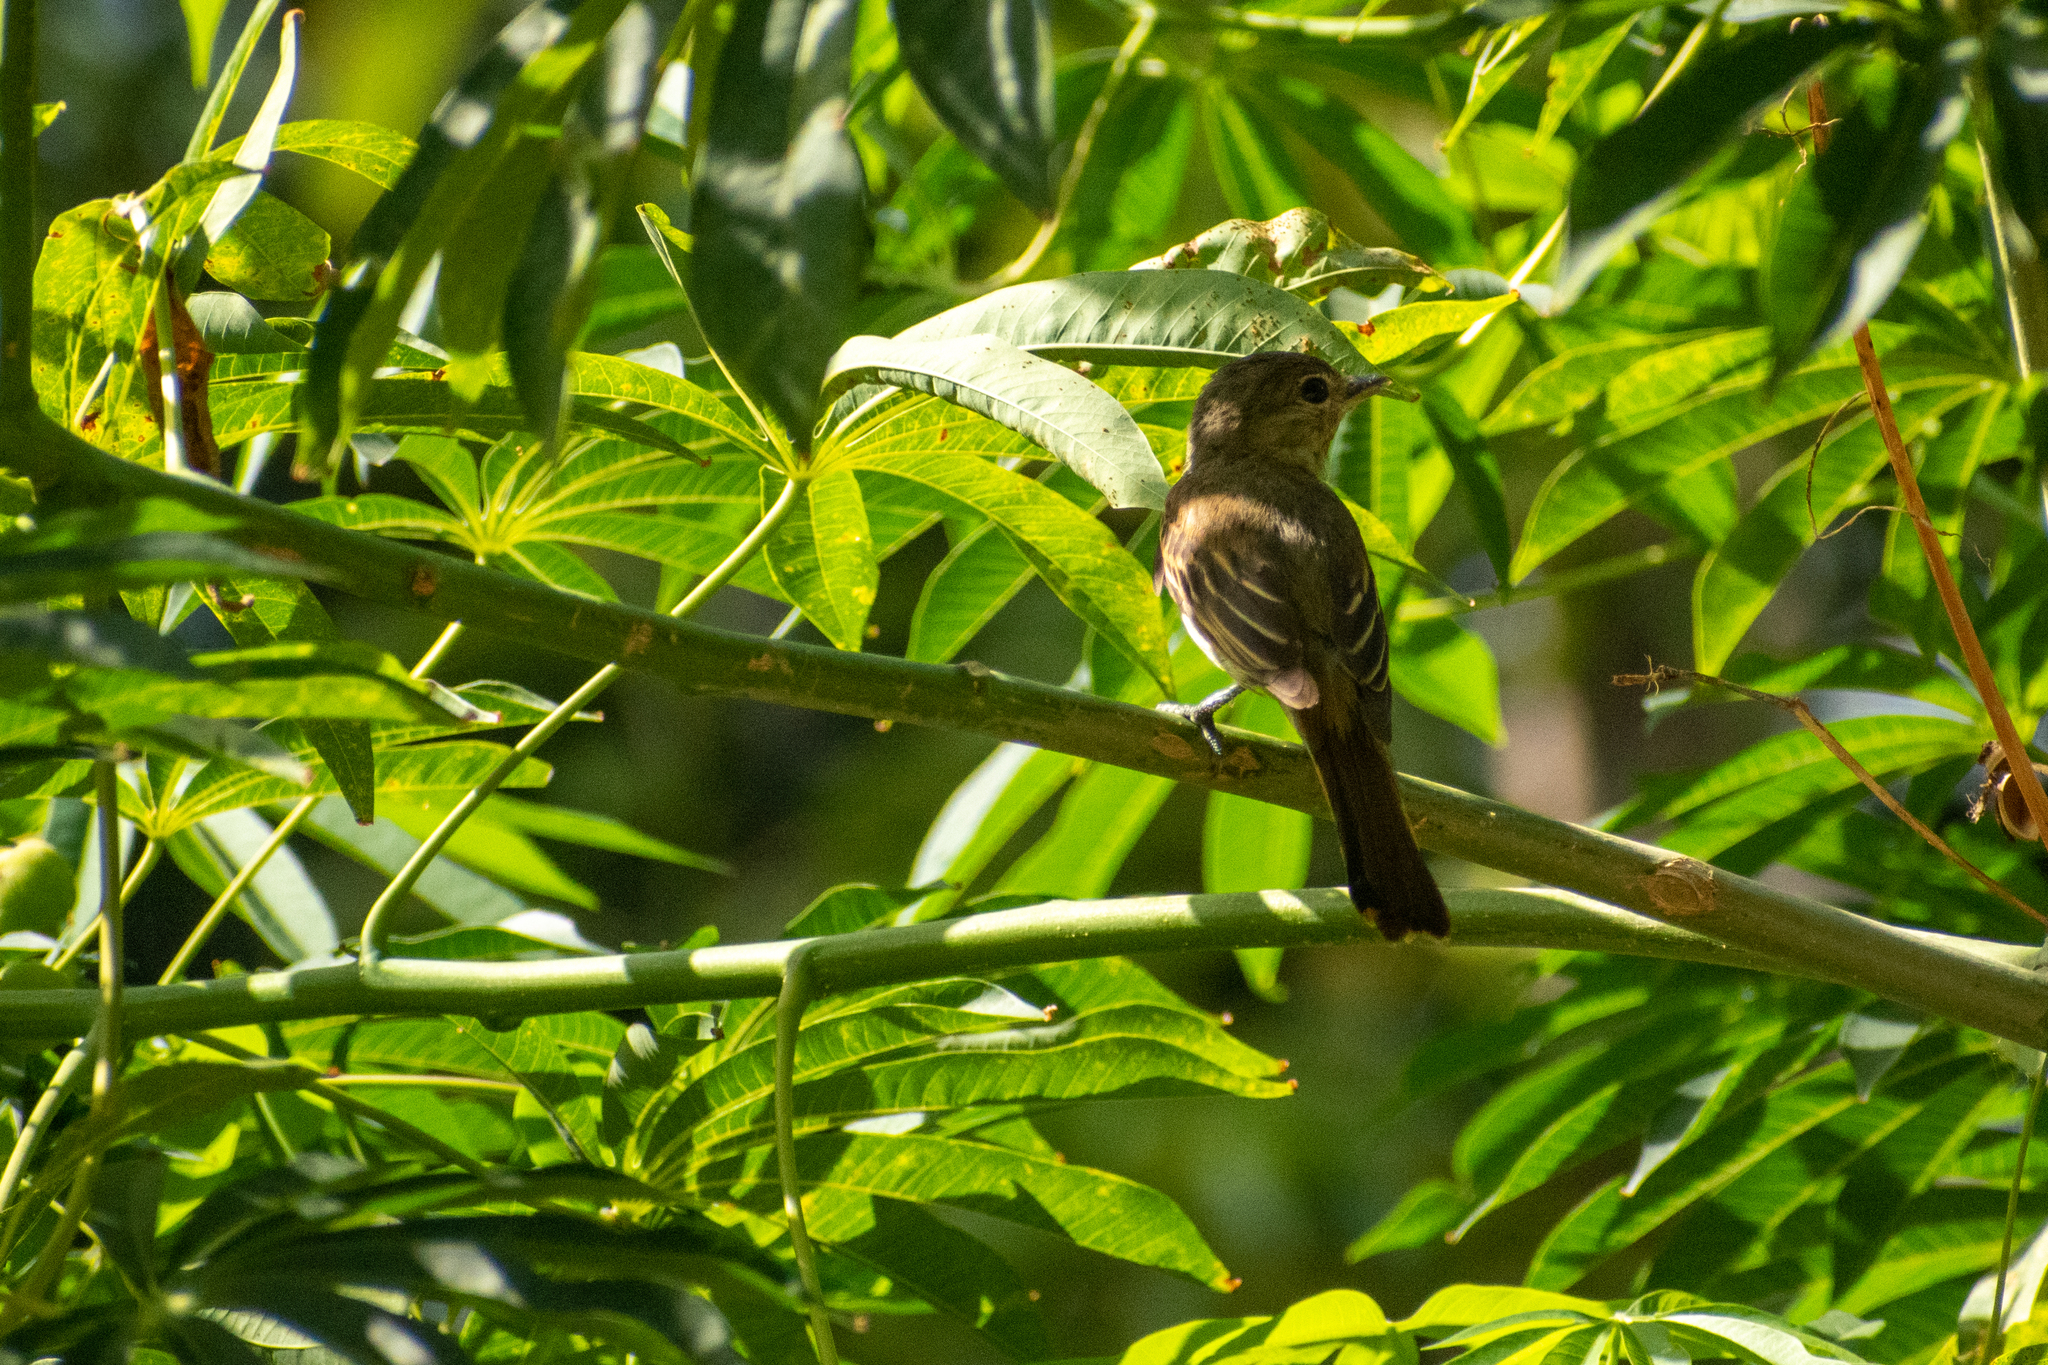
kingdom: Animalia
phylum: Chordata
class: Aves
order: Passeriformes
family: Cotingidae
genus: Pachyramphus
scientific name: Pachyramphus polychopterus
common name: White-winged becard
